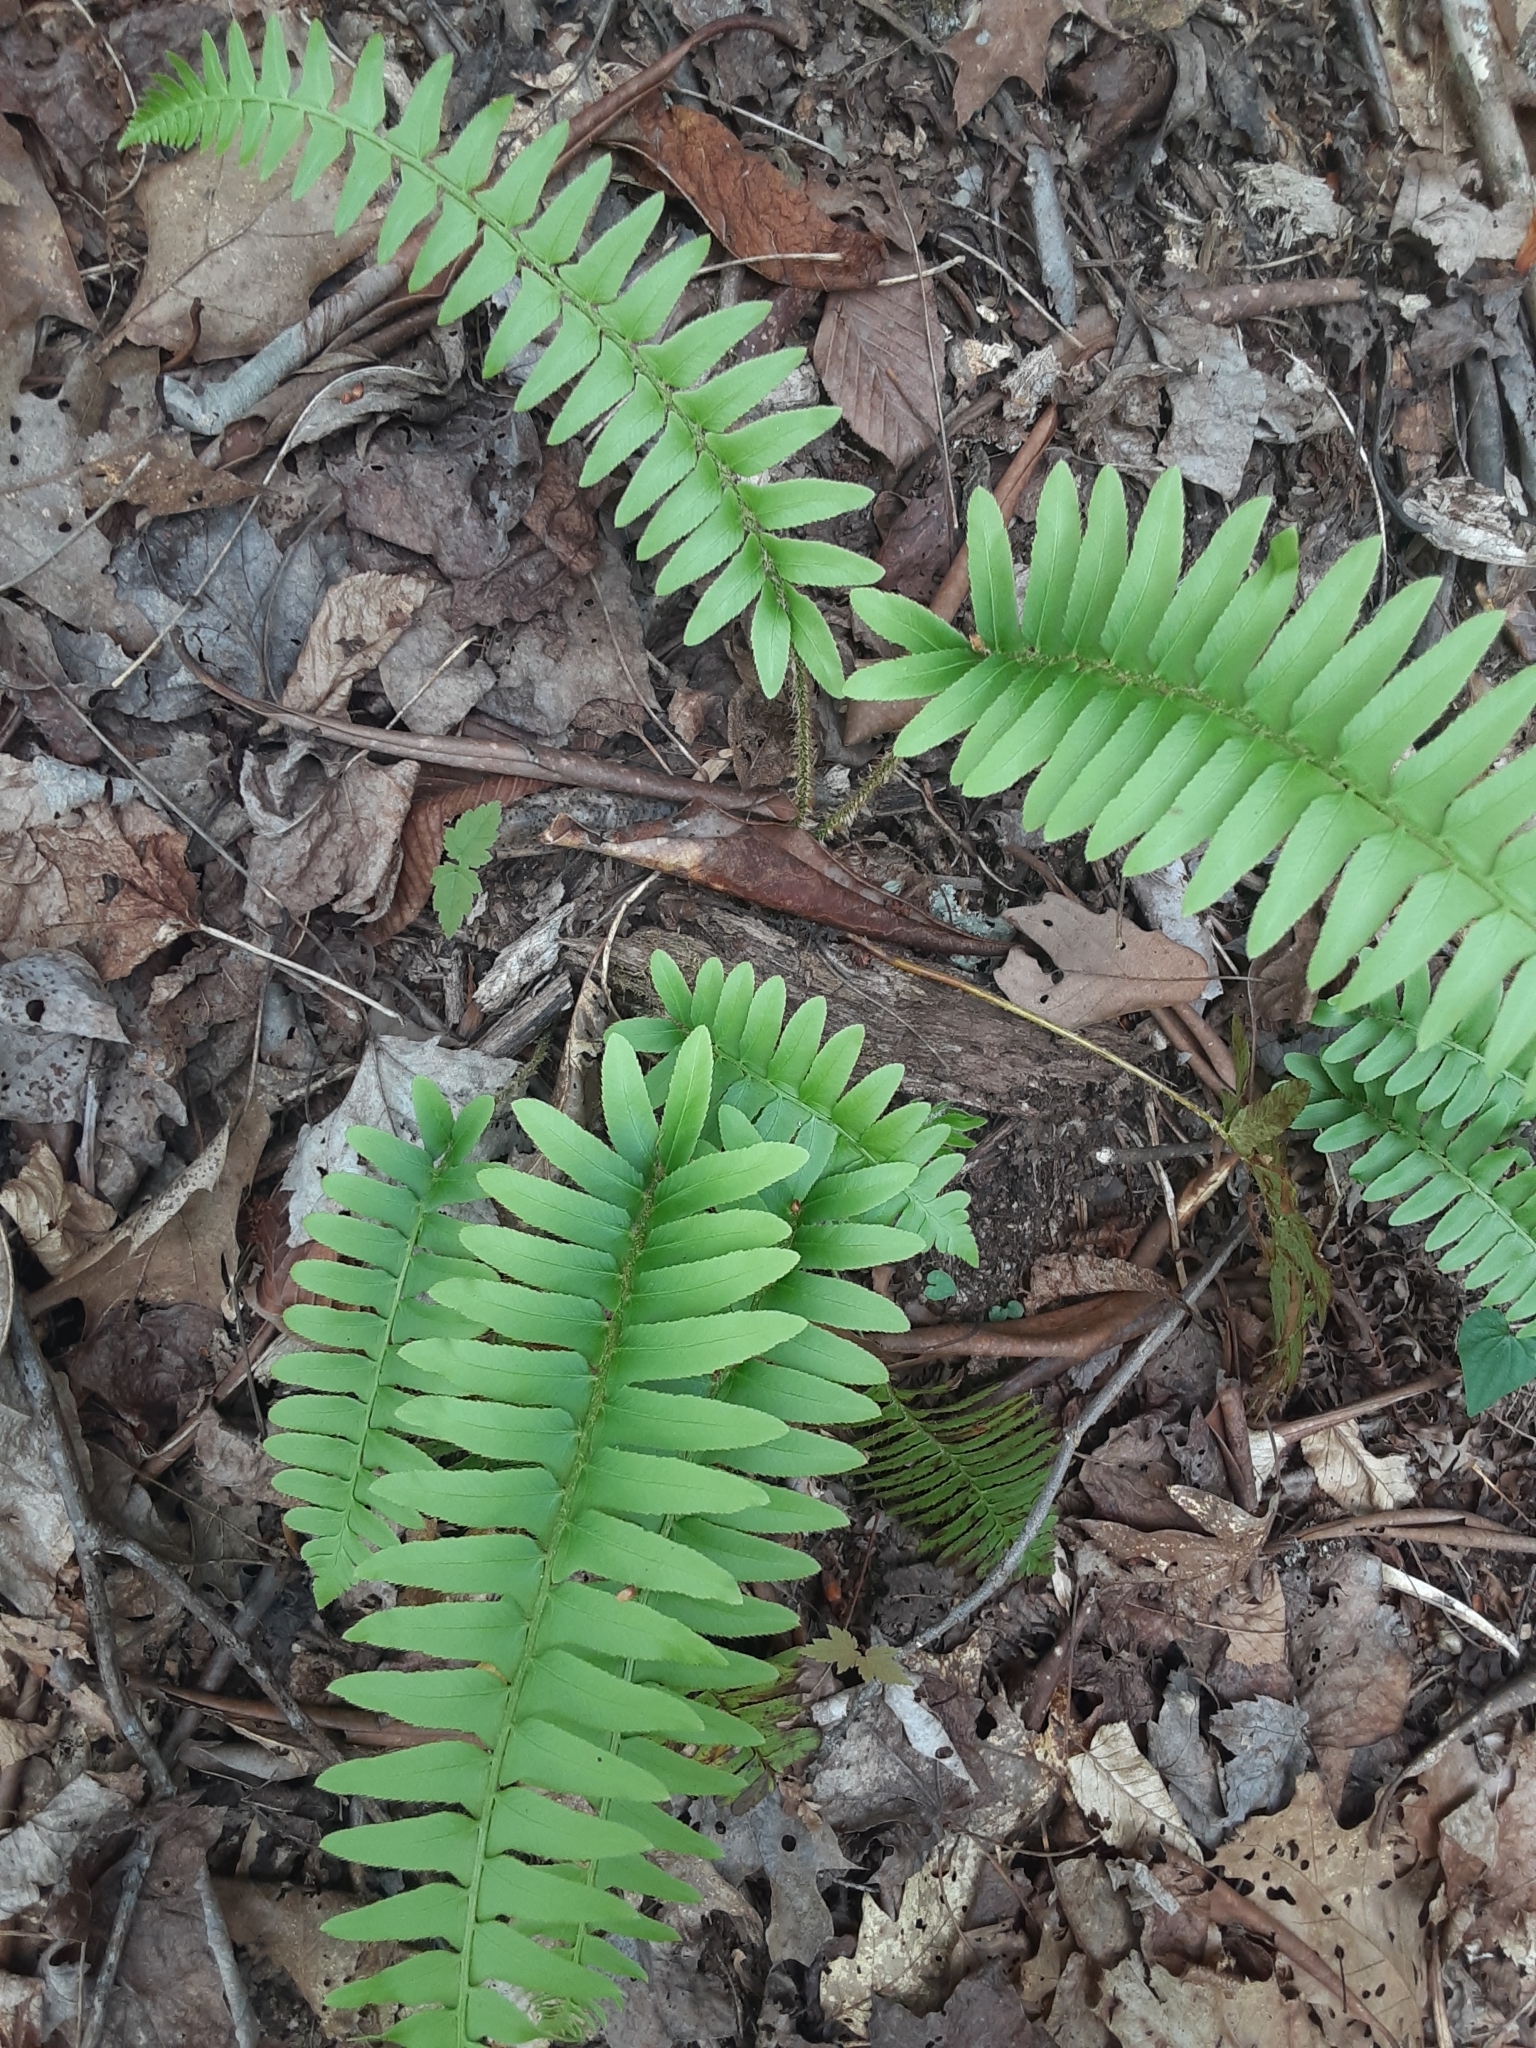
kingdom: Plantae
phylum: Tracheophyta
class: Polypodiopsida
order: Polypodiales
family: Dryopteridaceae
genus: Polystichum
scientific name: Polystichum acrostichoides
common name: Christmas fern
